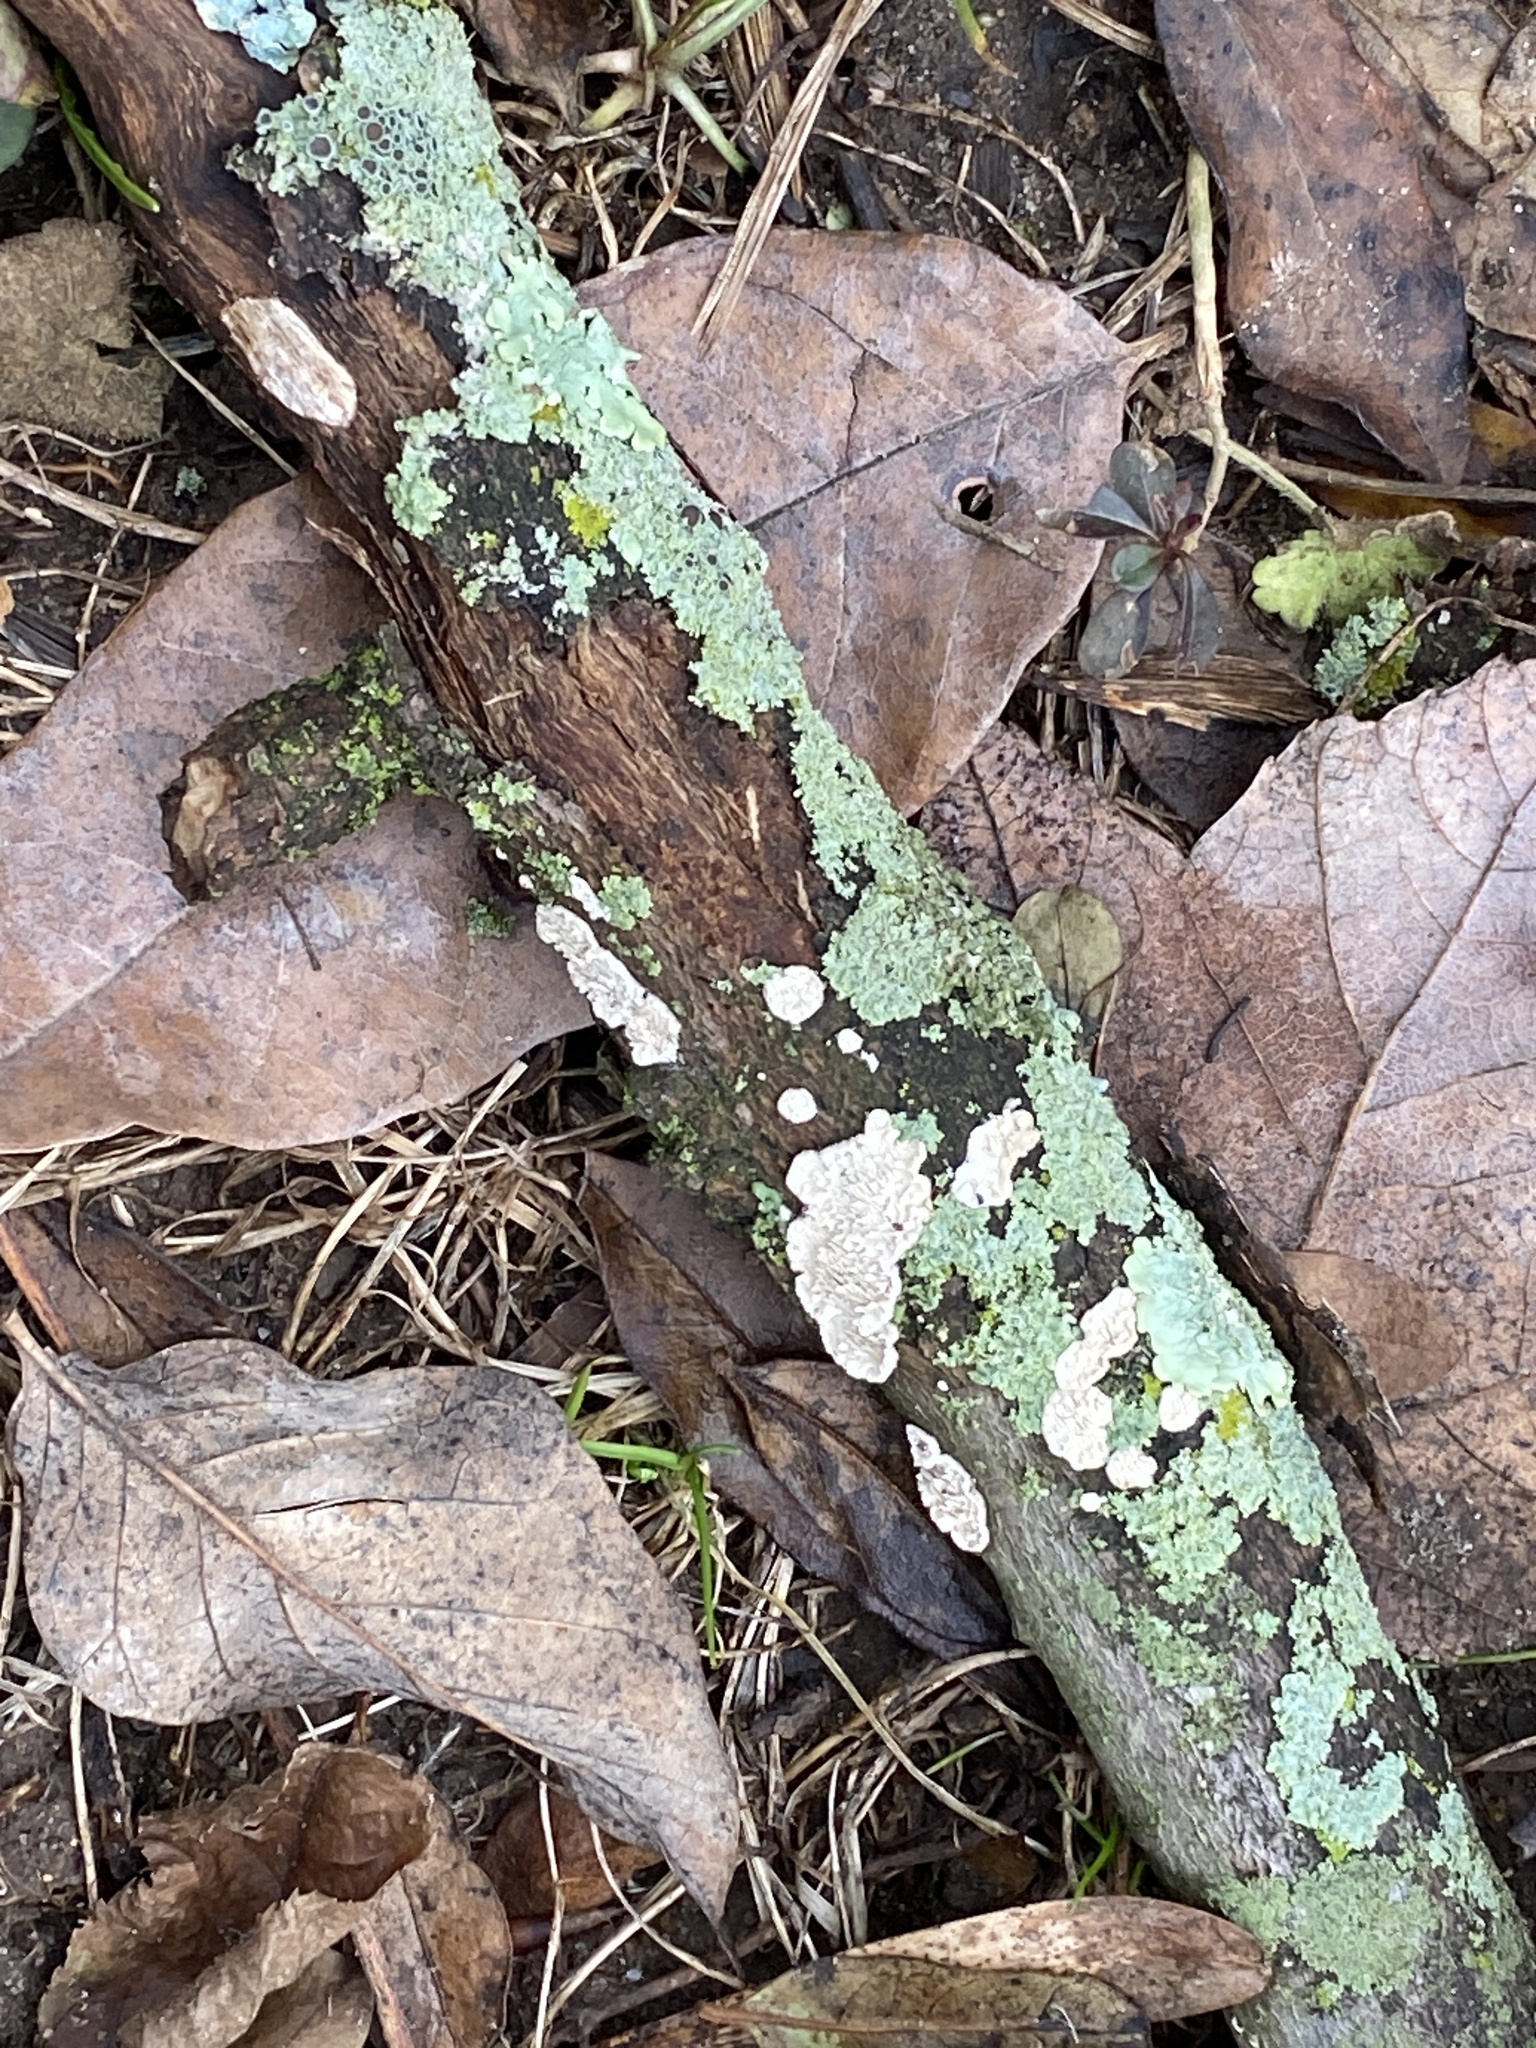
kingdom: Fungi
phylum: Basidiomycota
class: Agaricomycetes
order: Polyporales
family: Irpicaceae
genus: Irpex
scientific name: Irpex lacteus
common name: Milk-white toothed polypore
